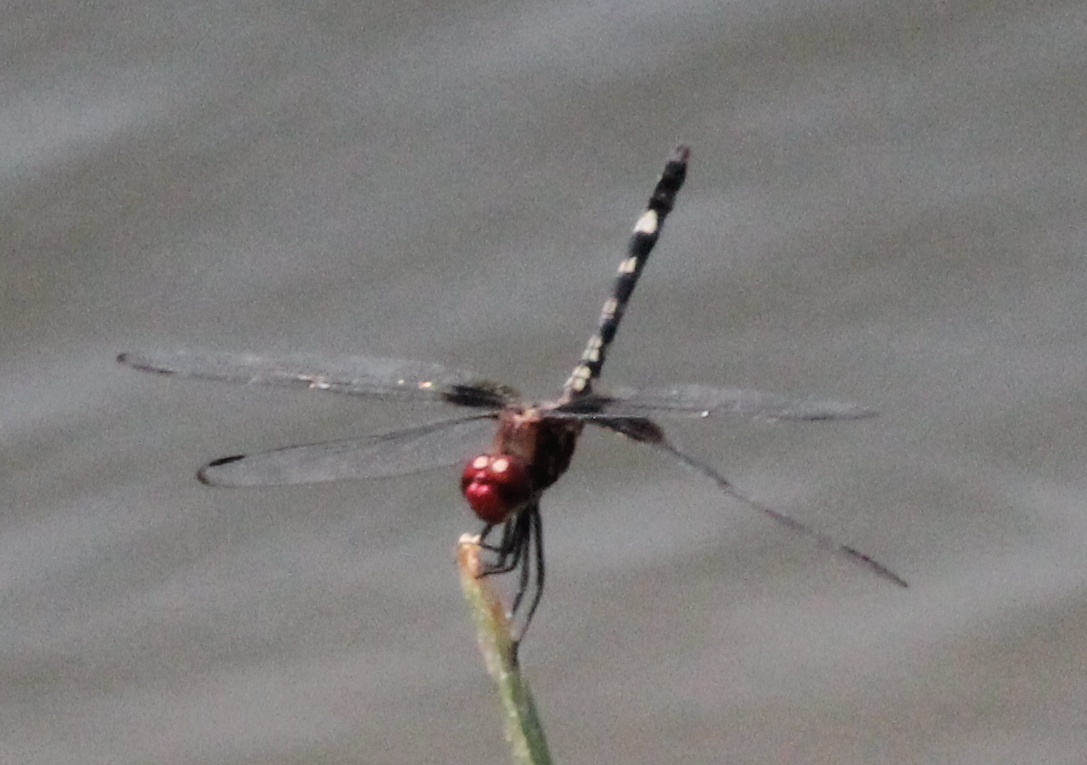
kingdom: Animalia
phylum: Arthropoda
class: Insecta
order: Odonata
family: Libellulidae
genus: Dythemis
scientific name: Dythemis fugax
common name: Checkered setwing
